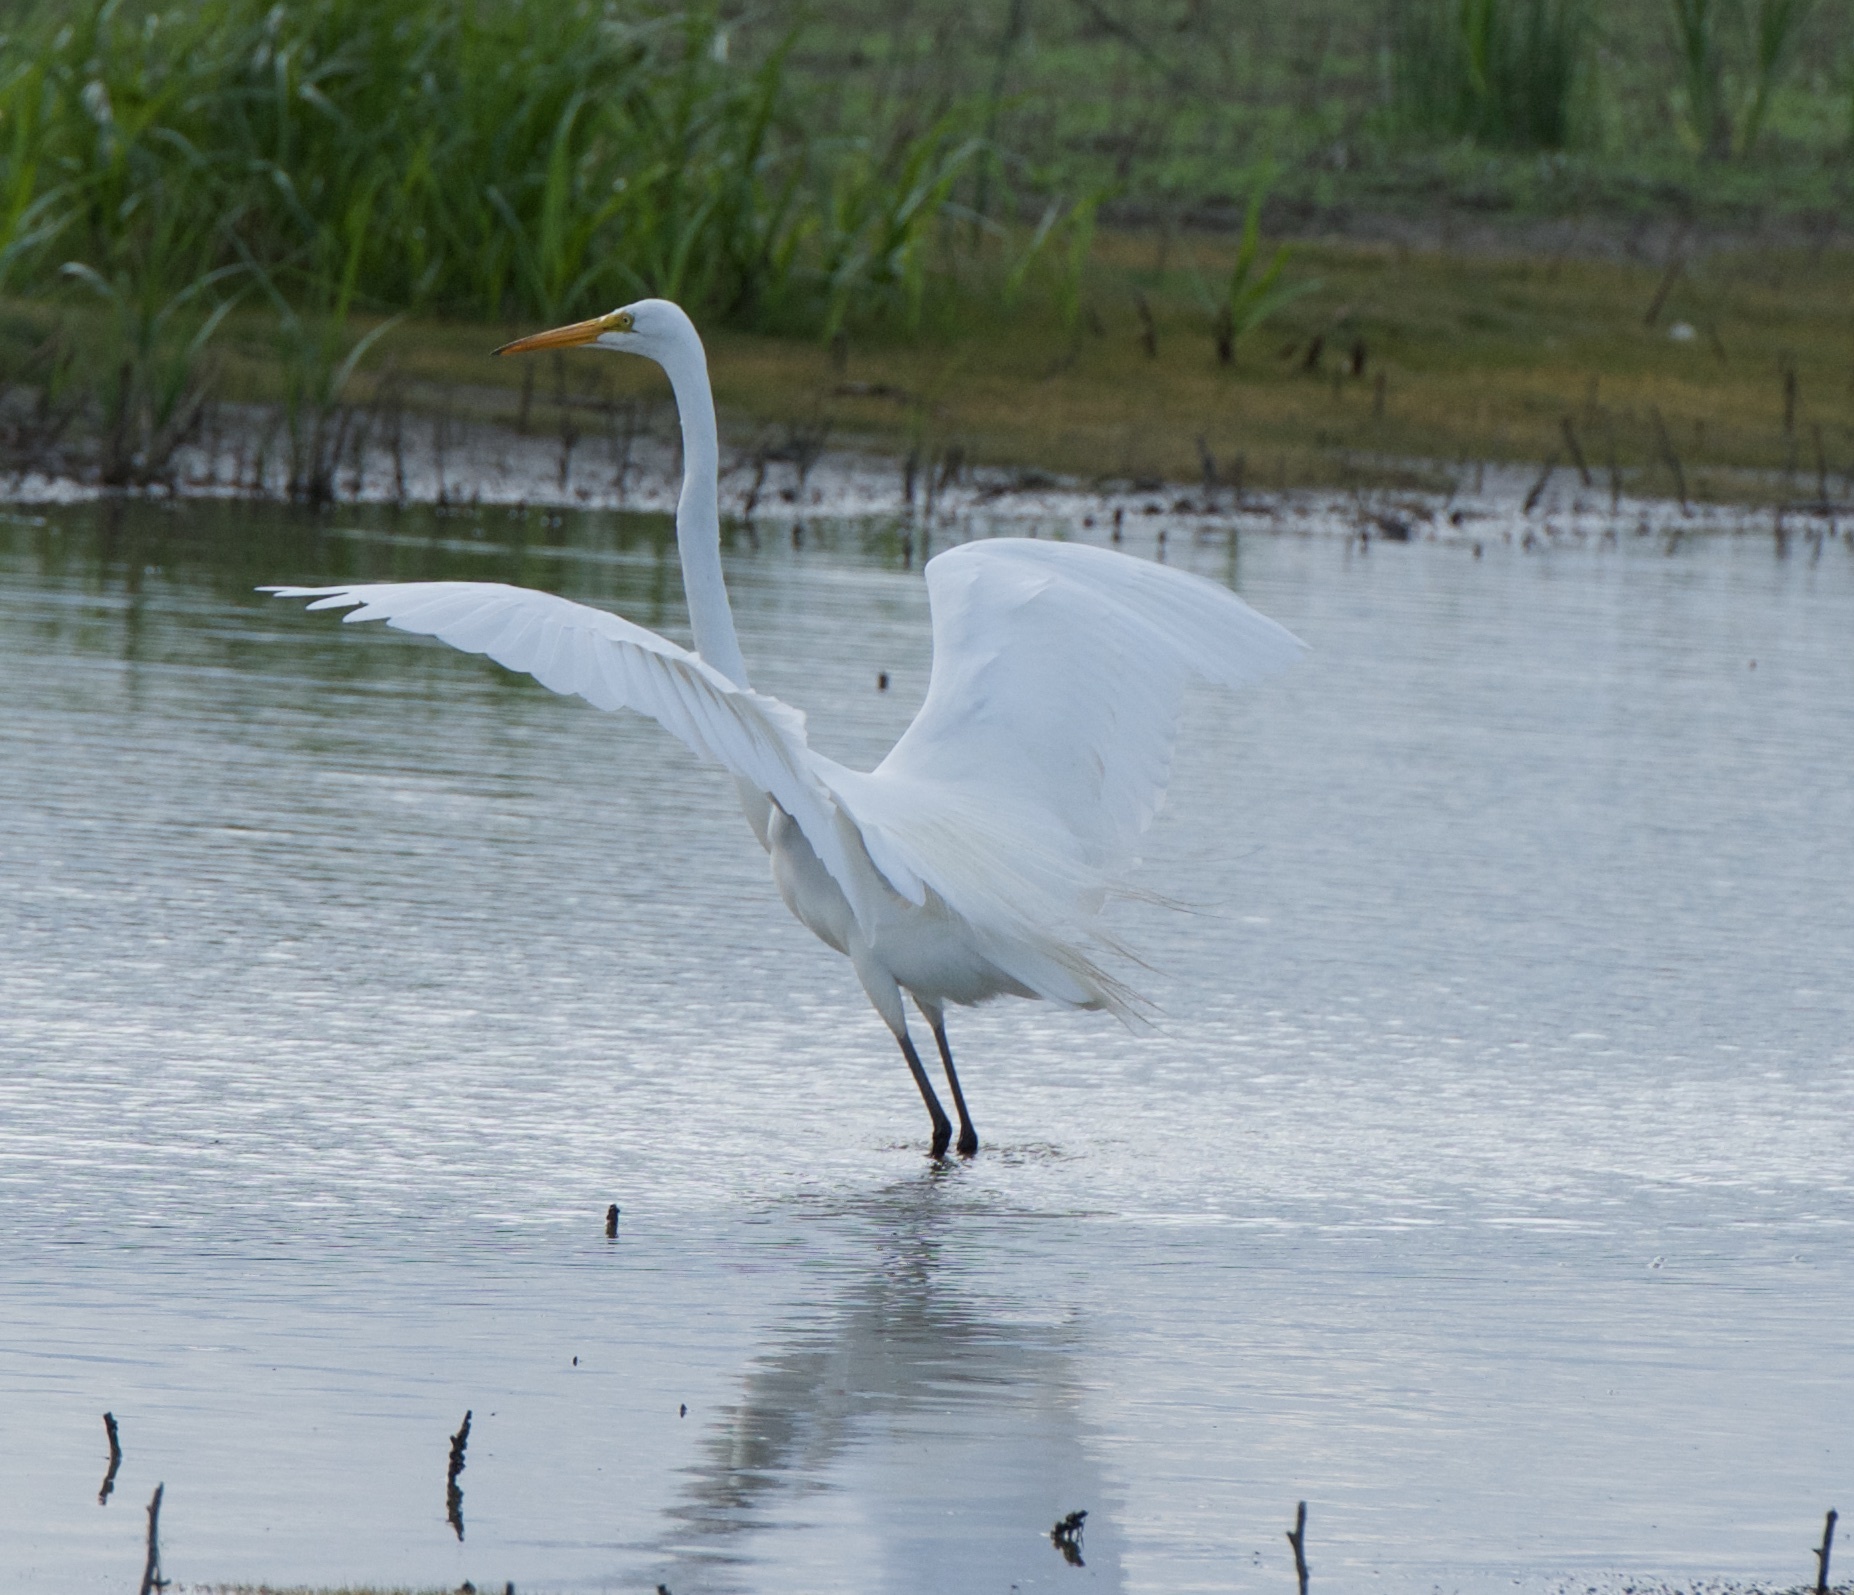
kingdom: Animalia
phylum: Chordata
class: Aves
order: Pelecaniformes
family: Ardeidae
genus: Ardea
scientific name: Ardea alba
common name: Great egret
